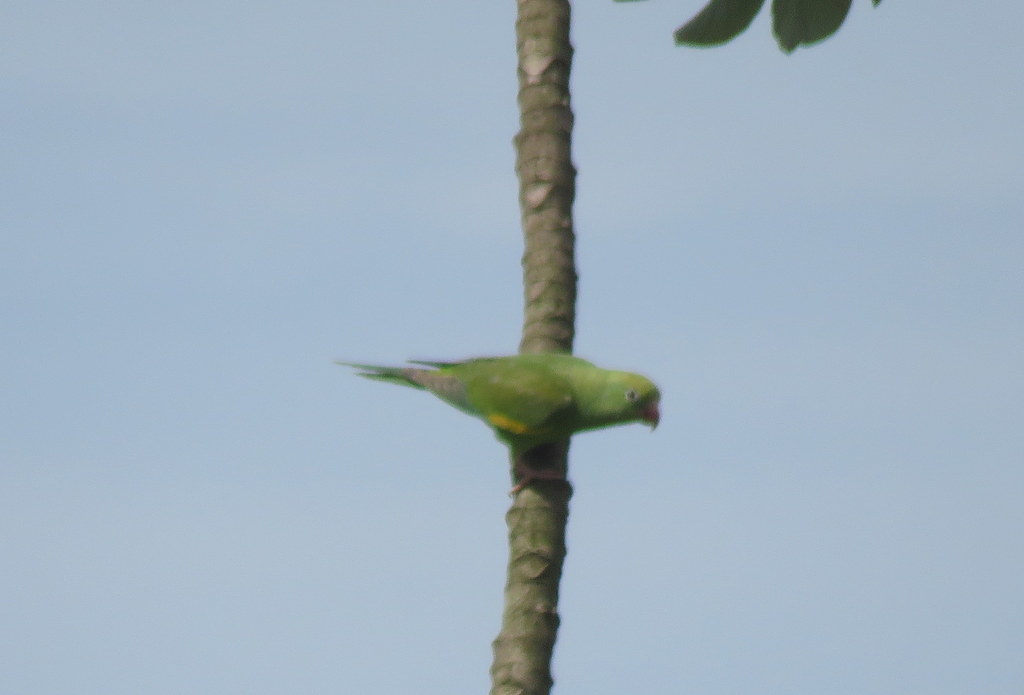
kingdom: Animalia
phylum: Chordata
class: Aves
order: Psittaciformes
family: Psittacidae
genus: Brotogeris
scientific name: Brotogeris chiriri
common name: Yellow-chevroned parakeet
